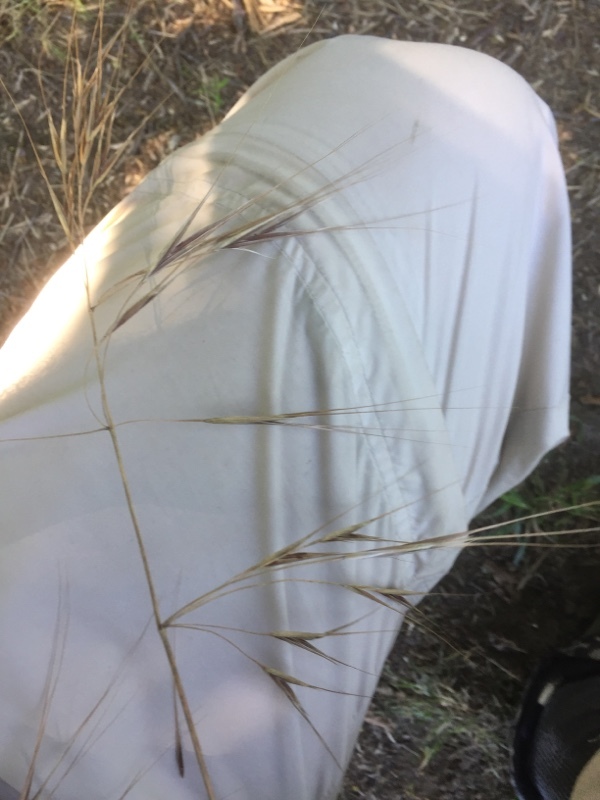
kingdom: Plantae
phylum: Tracheophyta
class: Liliopsida
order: Poales
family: Poaceae
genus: Bromus
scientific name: Bromus sterilis
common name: Poverty brome
